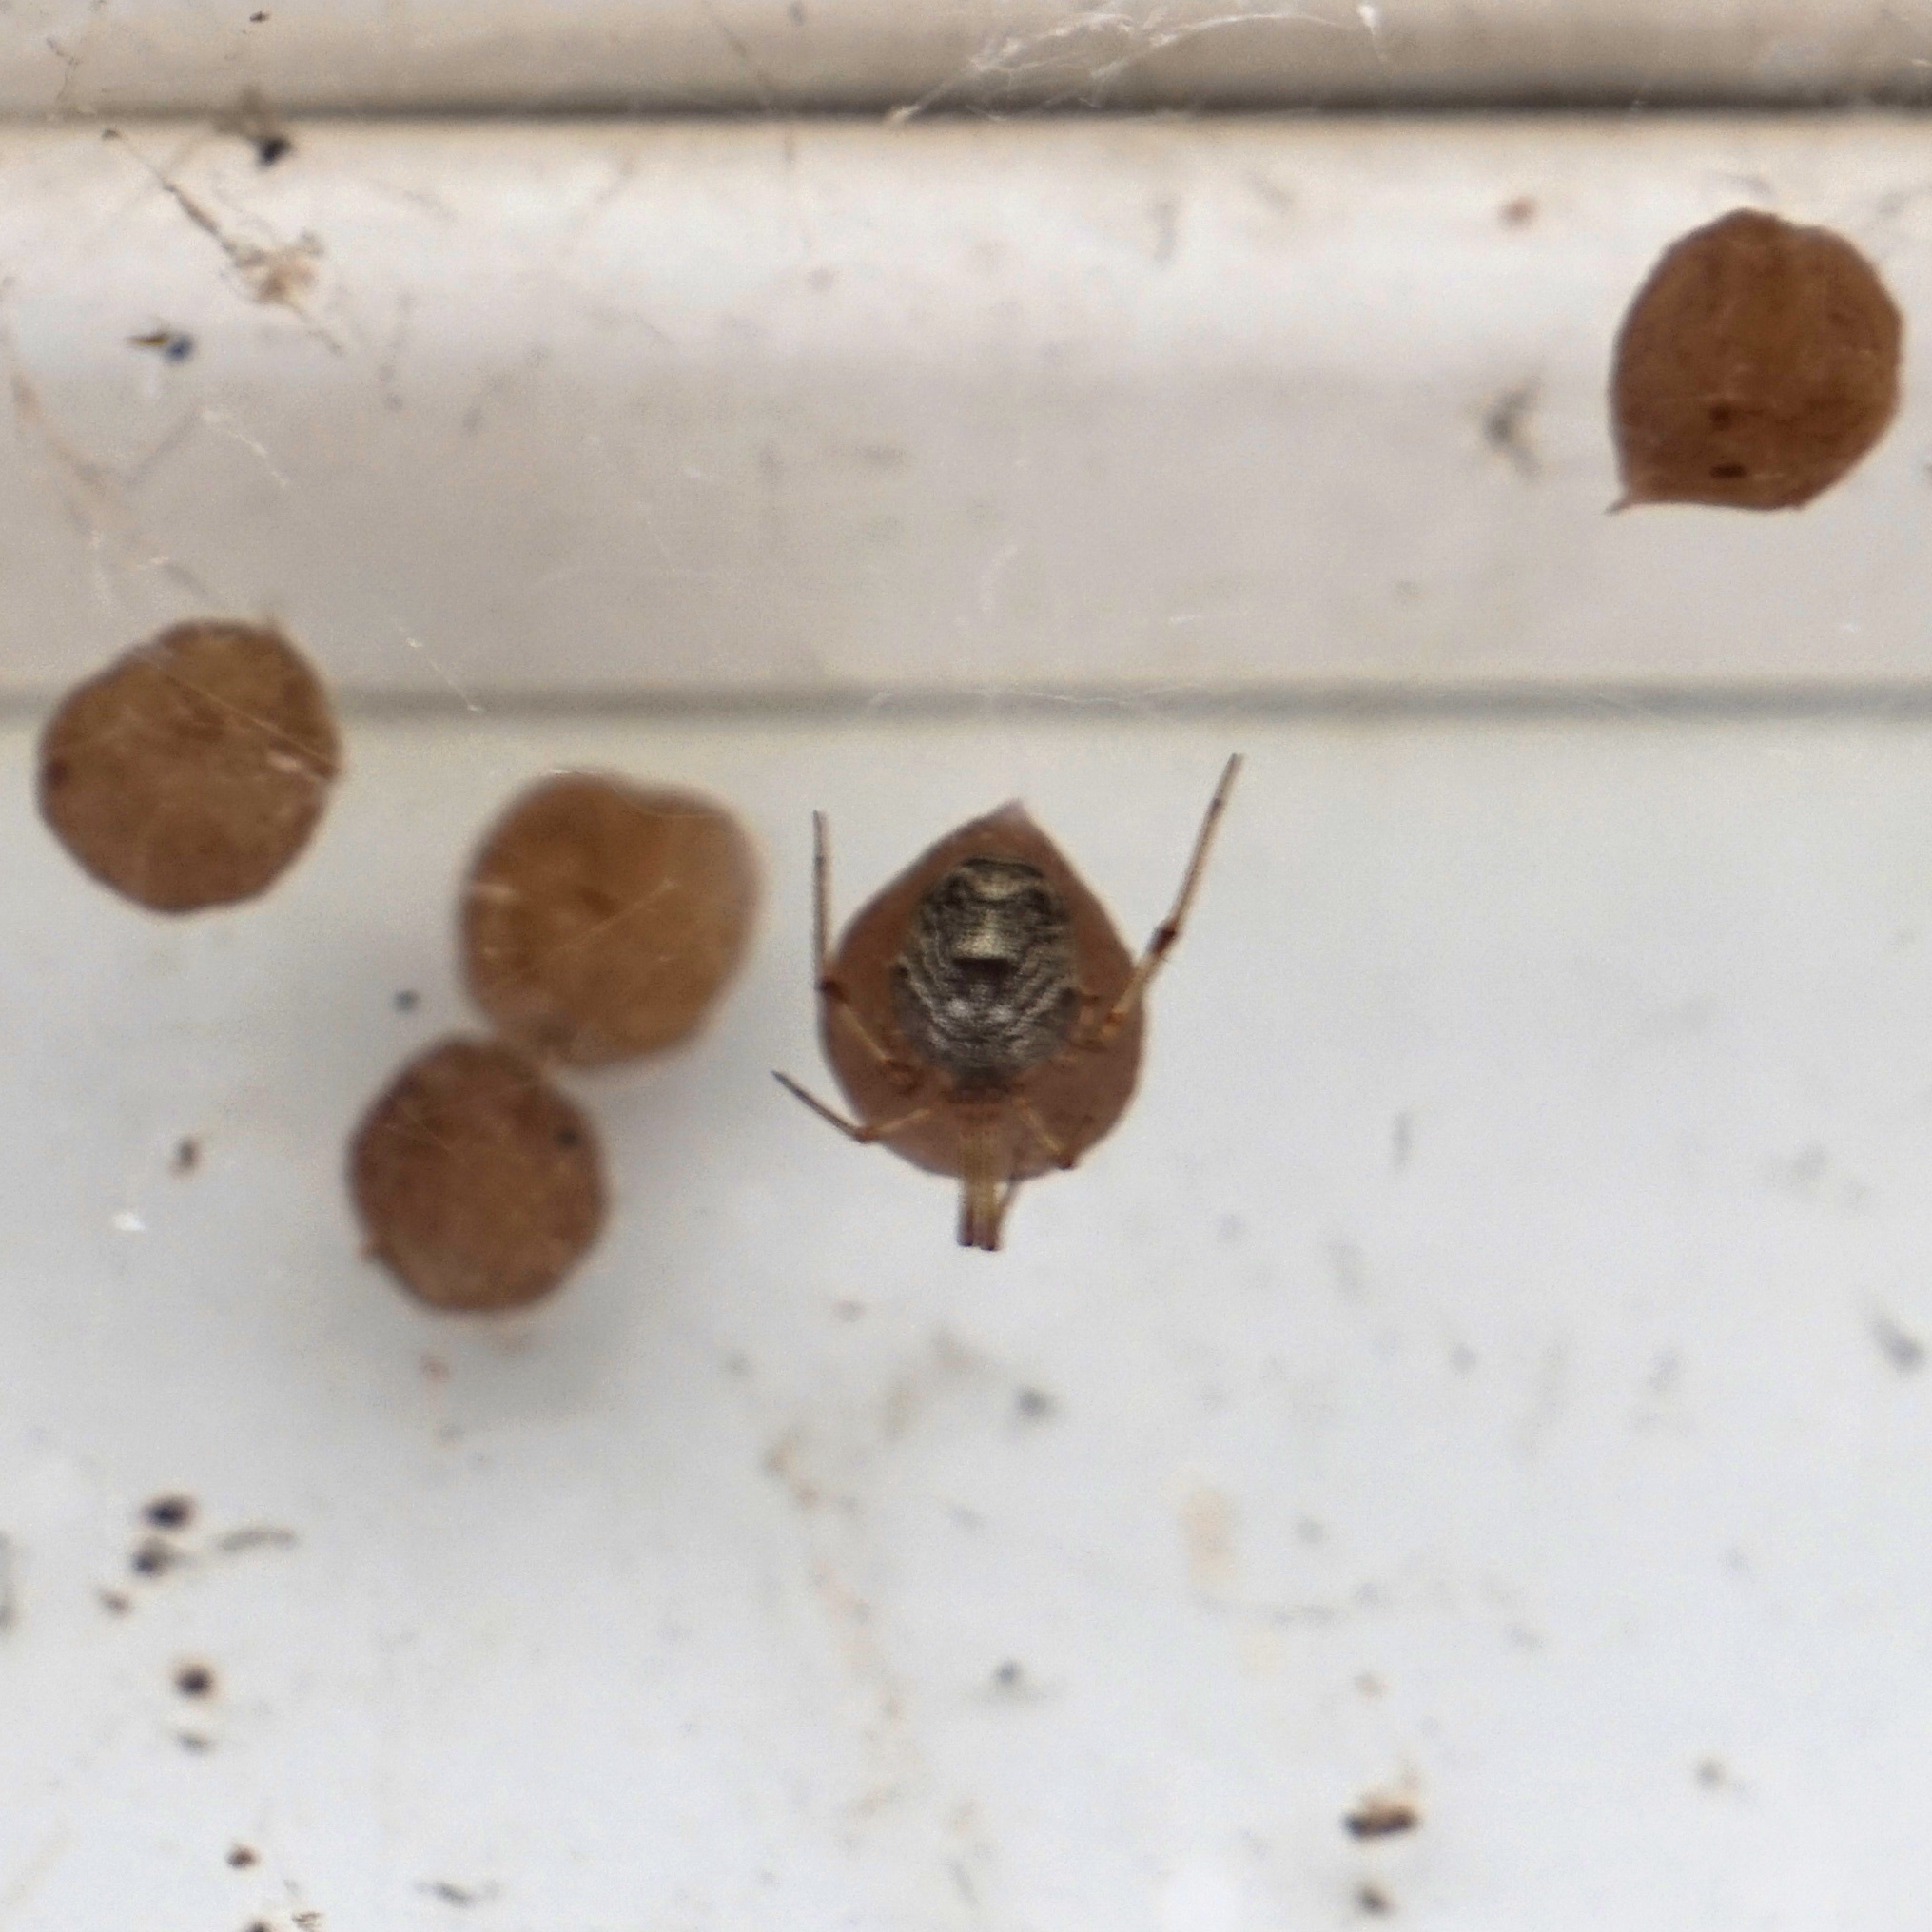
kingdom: Animalia
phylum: Arthropoda
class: Arachnida
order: Araneae
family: Theridiidae
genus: Parasteatoda
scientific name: Parasteatoda tepidariorum
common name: Common house spider
